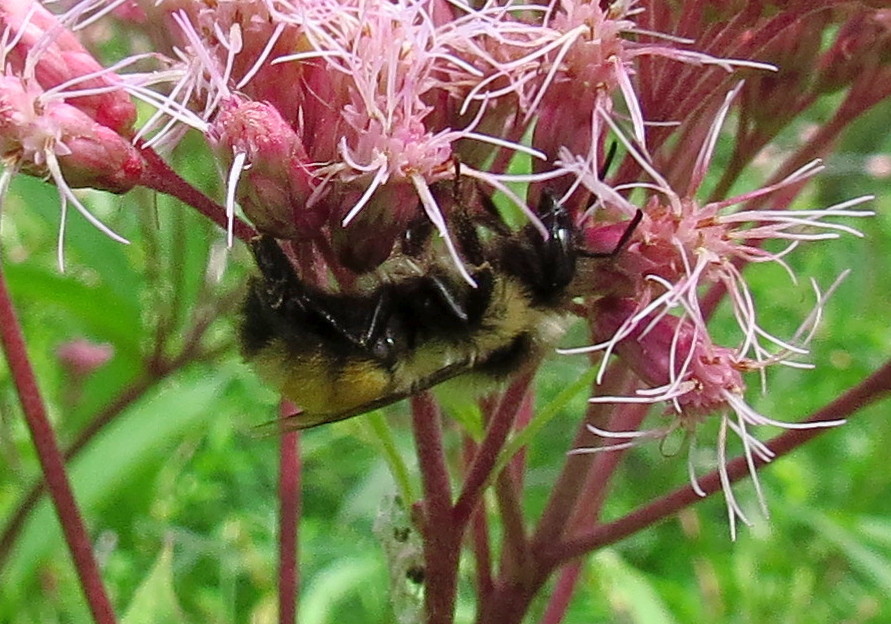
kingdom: Animalia
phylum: Arthropoda
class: Insecta
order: Hymenoptera
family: Apidae
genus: Bombus
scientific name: Bombus ternarius
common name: Tri-colored bumble bee
